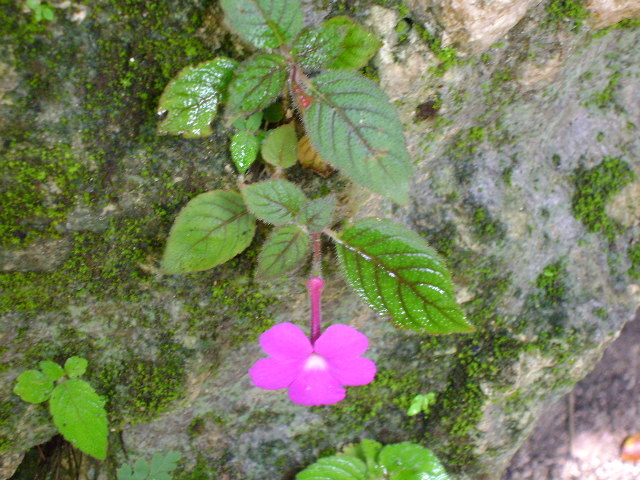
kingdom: Plantae
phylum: Tracheophyta
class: Magnoliopsida
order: Lamiales
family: Gesneriaceae
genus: Achimenes
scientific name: Achimenes grandiflora
